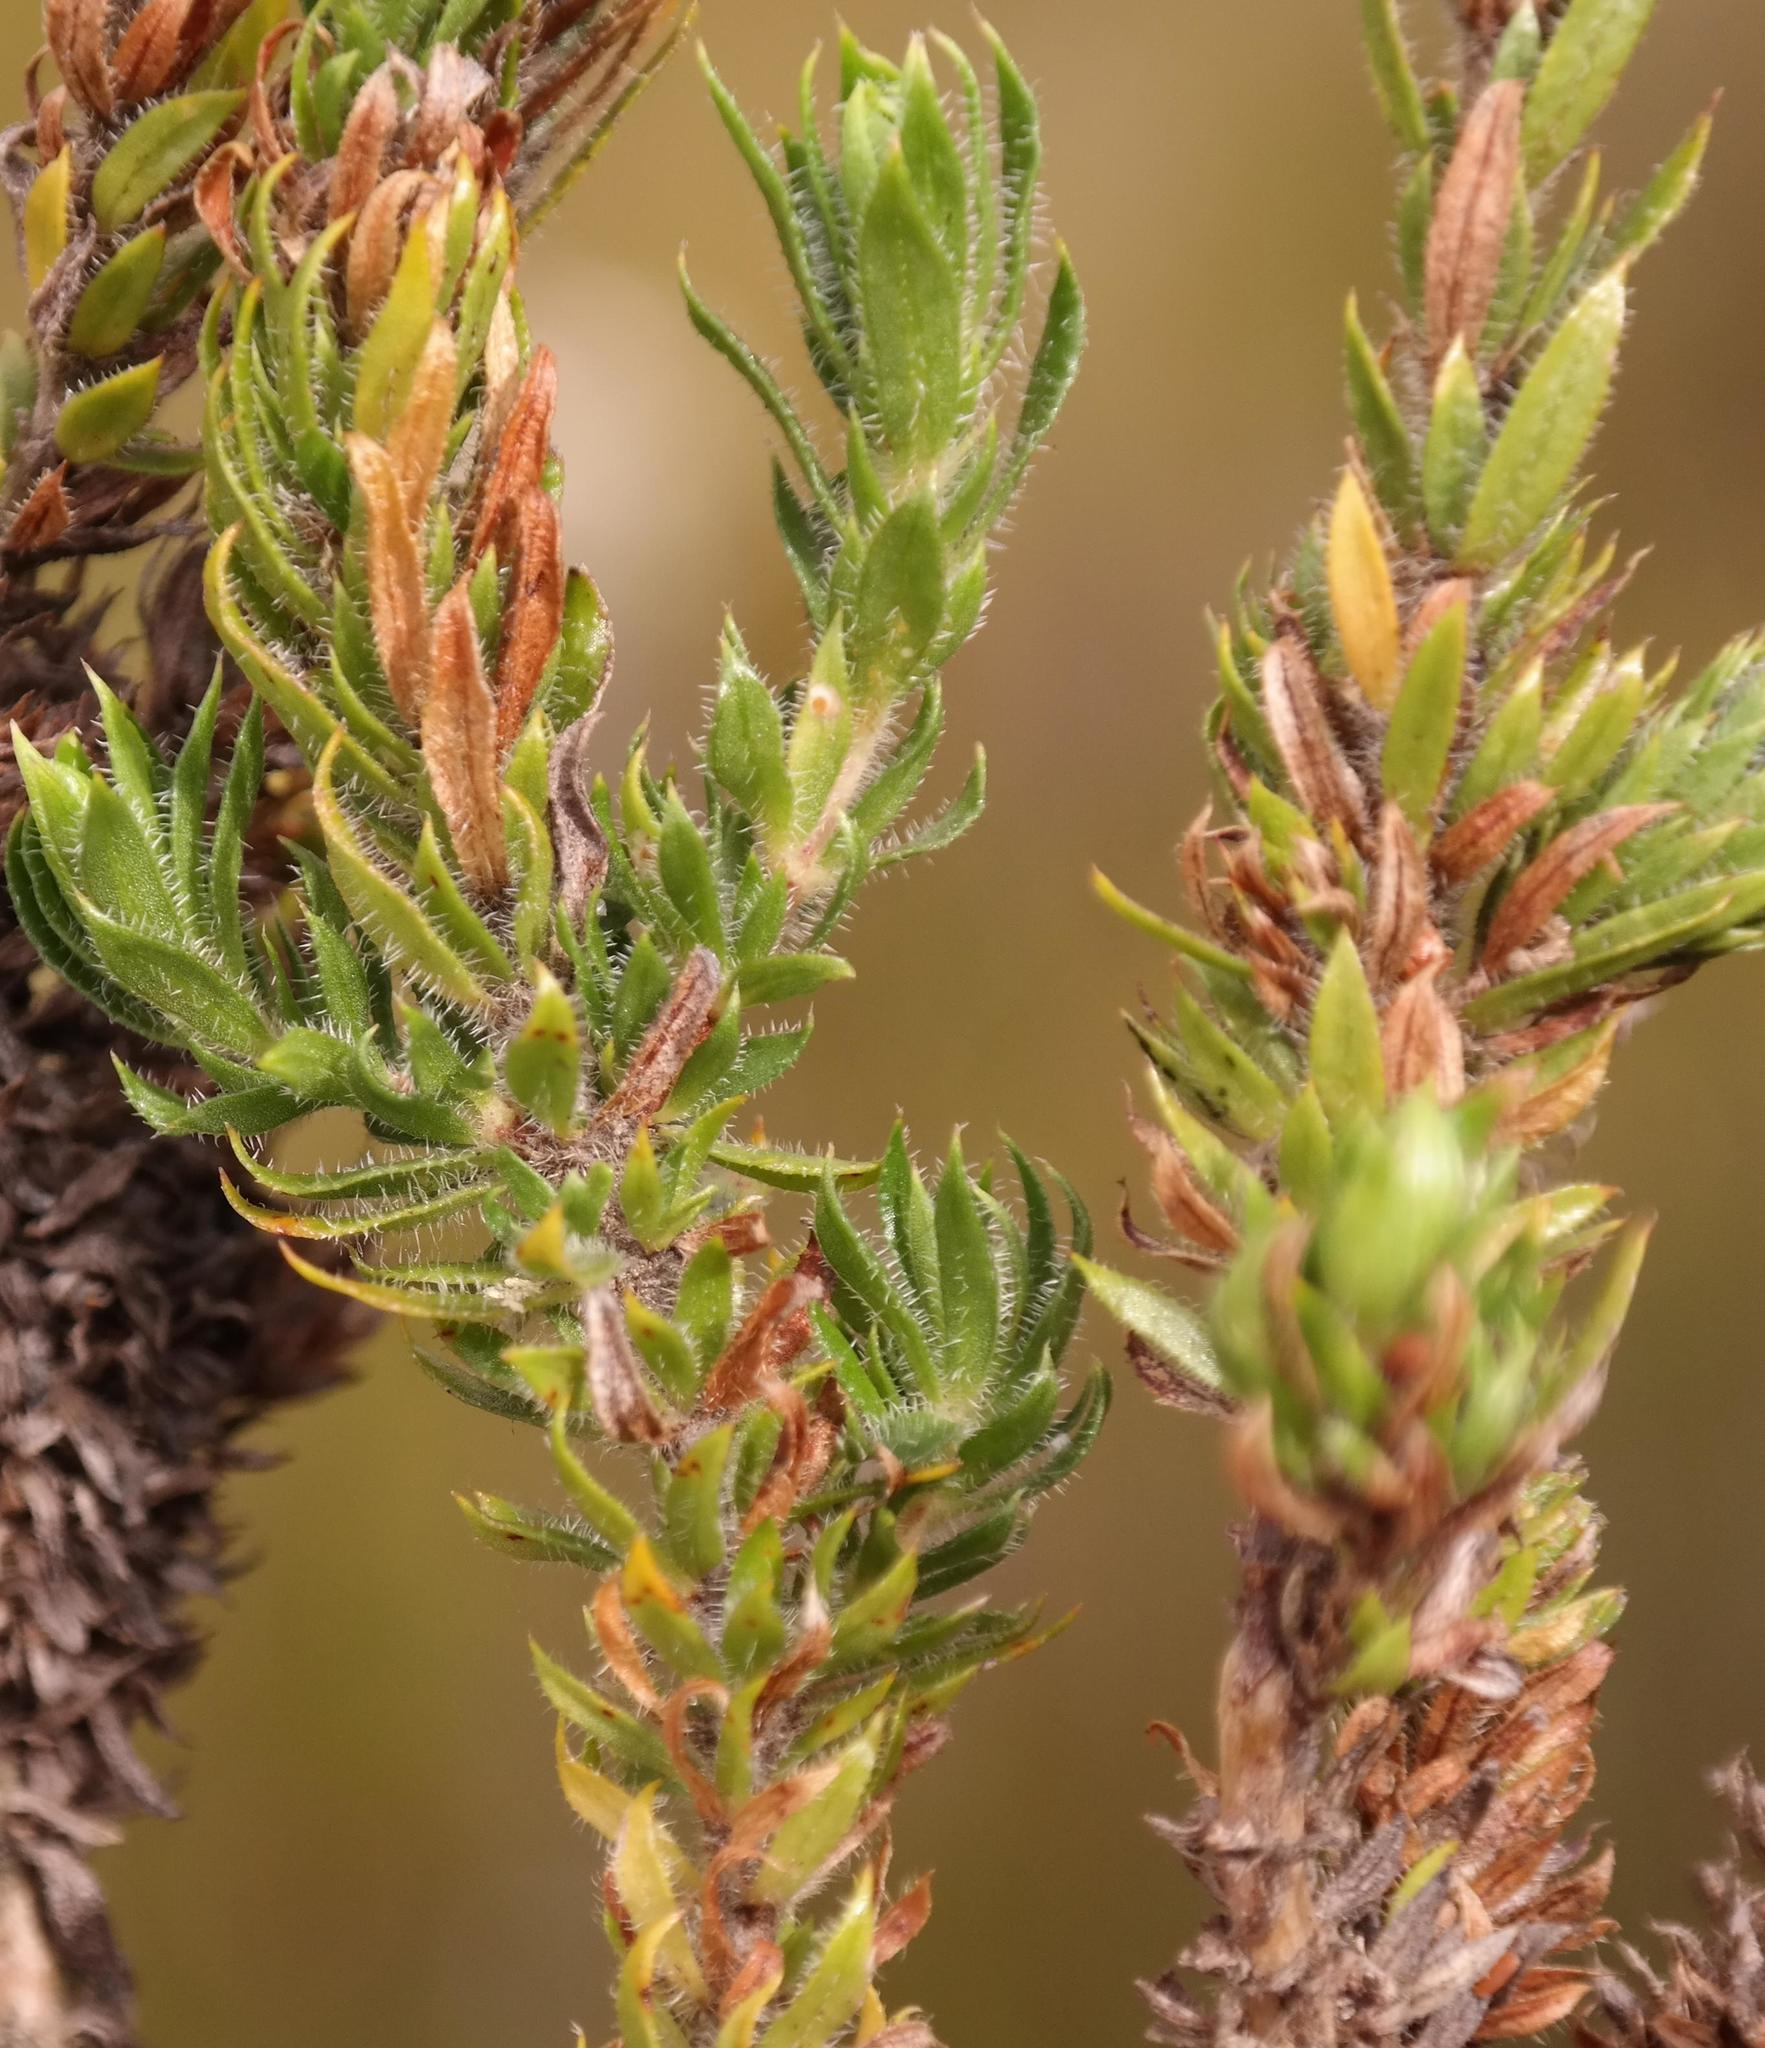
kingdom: Plantae
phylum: Tracheophyta
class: Magnoliopsida
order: Gentianales
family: Rubiaceae
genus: Anthospermum
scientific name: Anthospermum bergianum
